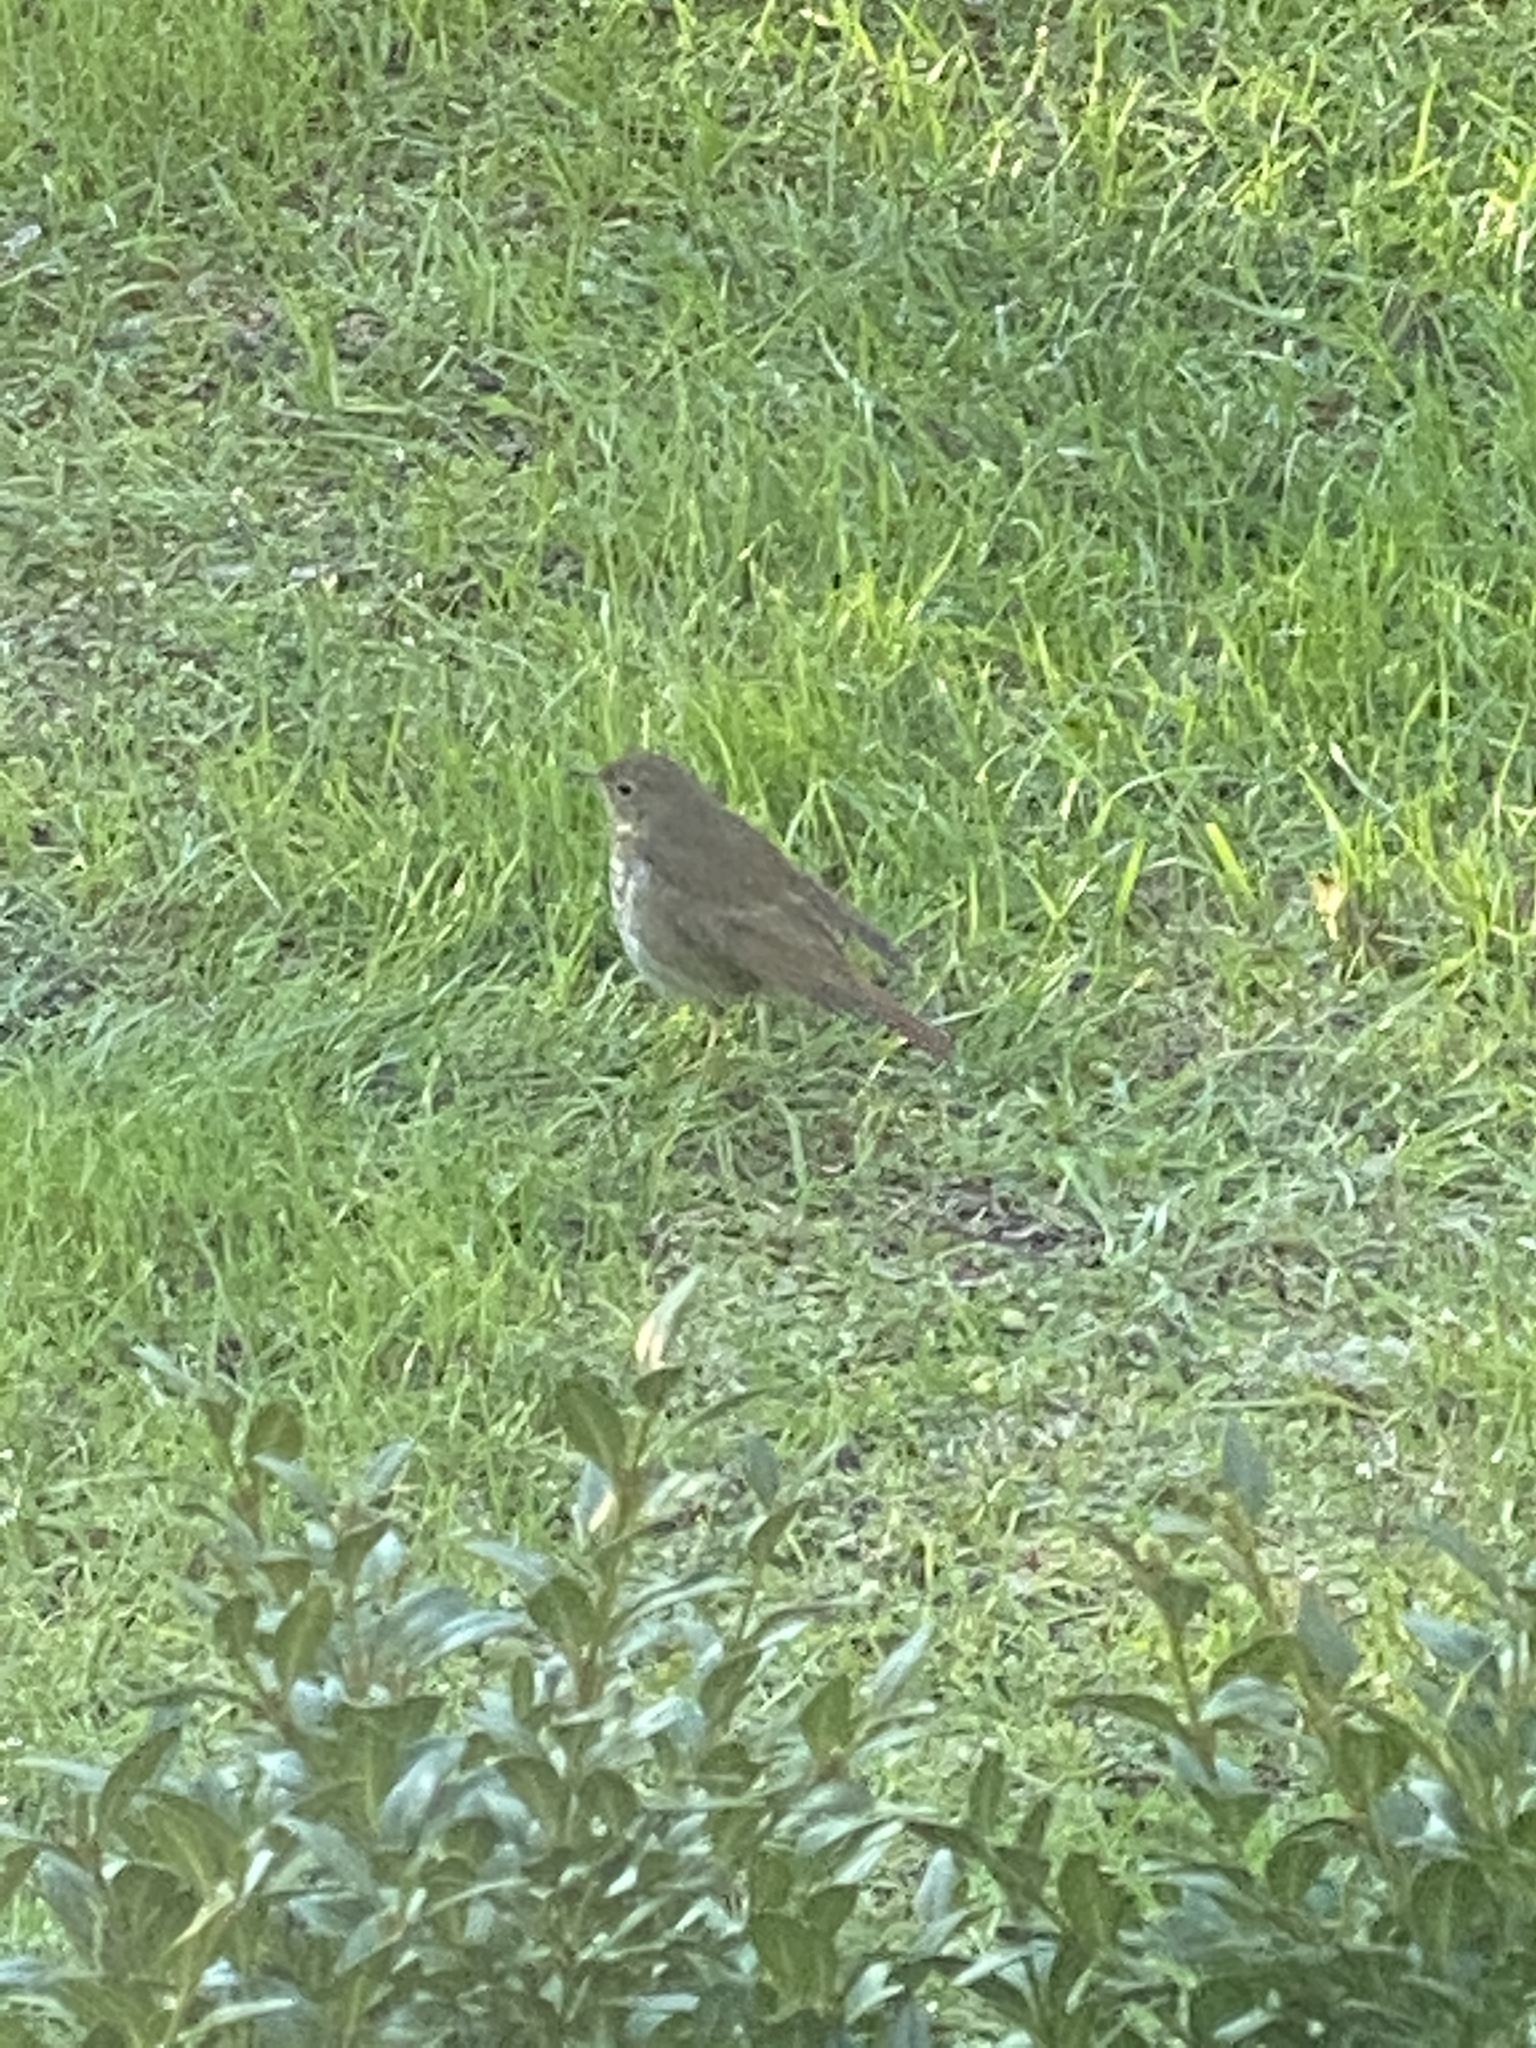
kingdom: Animalia
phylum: Chordata
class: Aves
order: Passeriformes
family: Turdidae
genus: Catharus
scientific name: Catharus guttatus
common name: Hermit thrush
